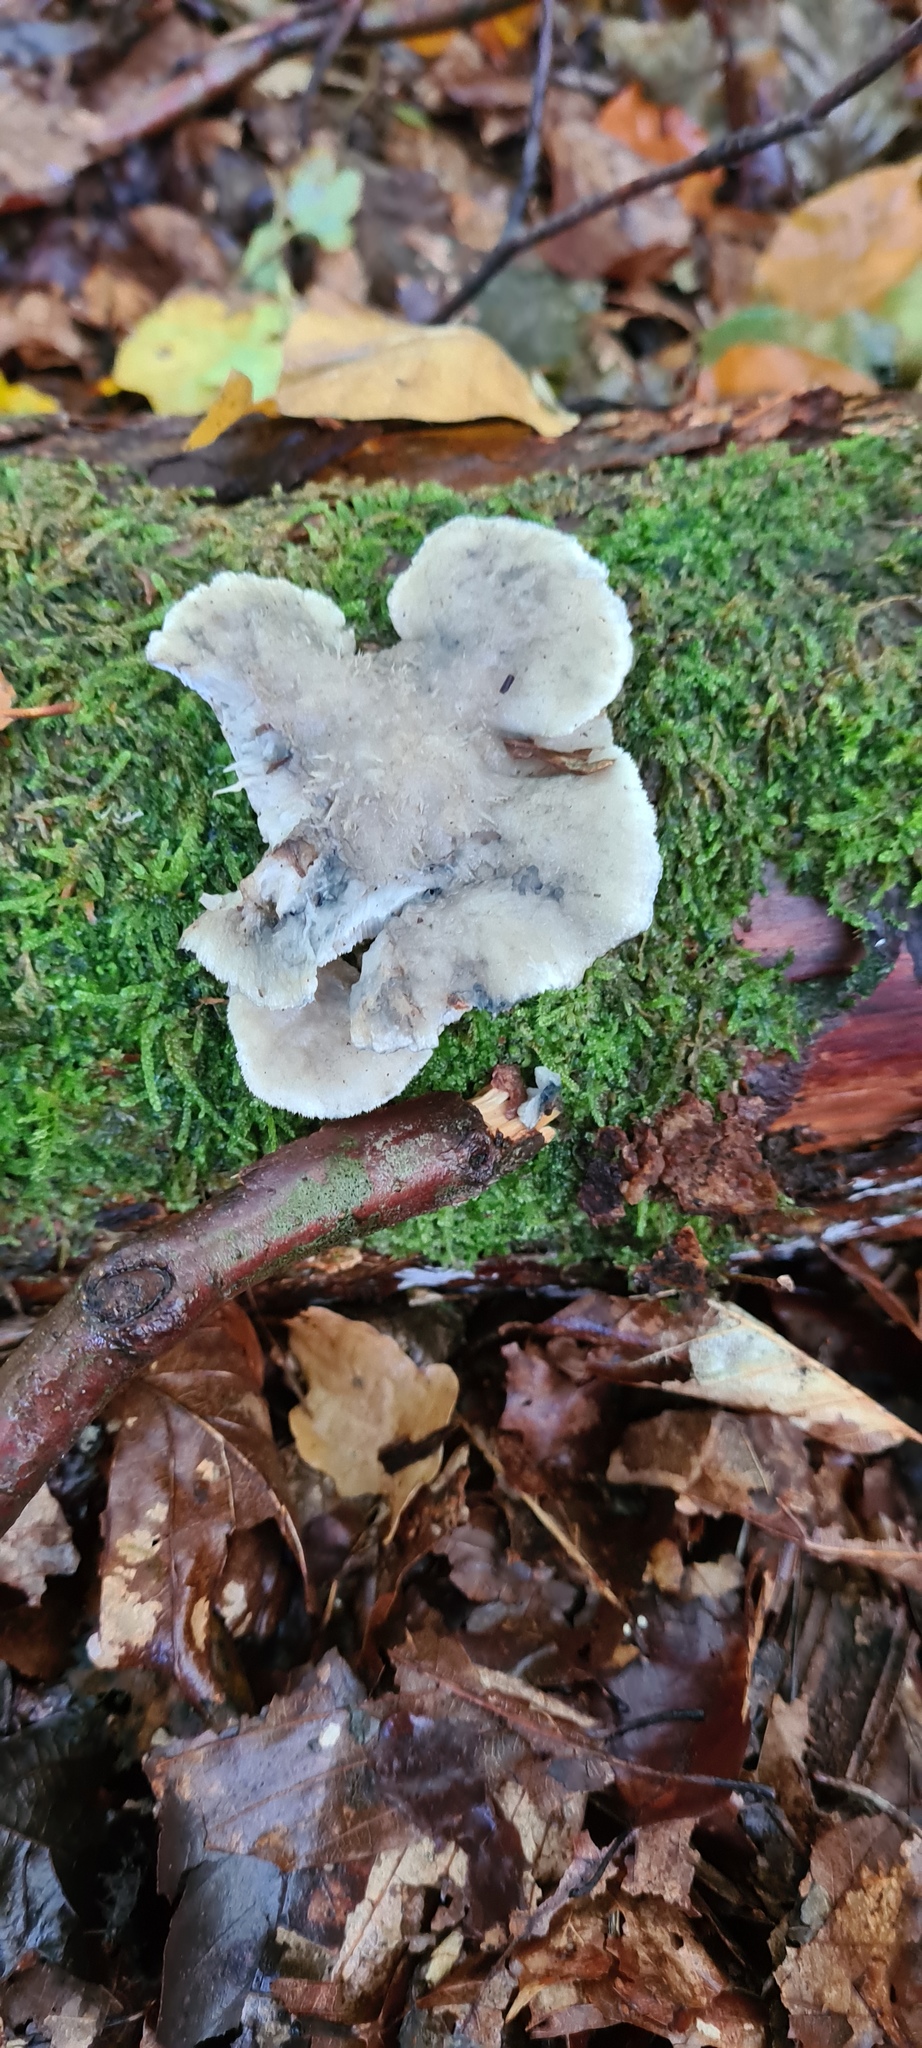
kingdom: Fungi
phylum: Basidiomycota
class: Agaricomycetes
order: Polyporales
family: Polyporaceae
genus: Cyanosporus
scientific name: Cyanosporus caesius
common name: Blue cheese polypore
